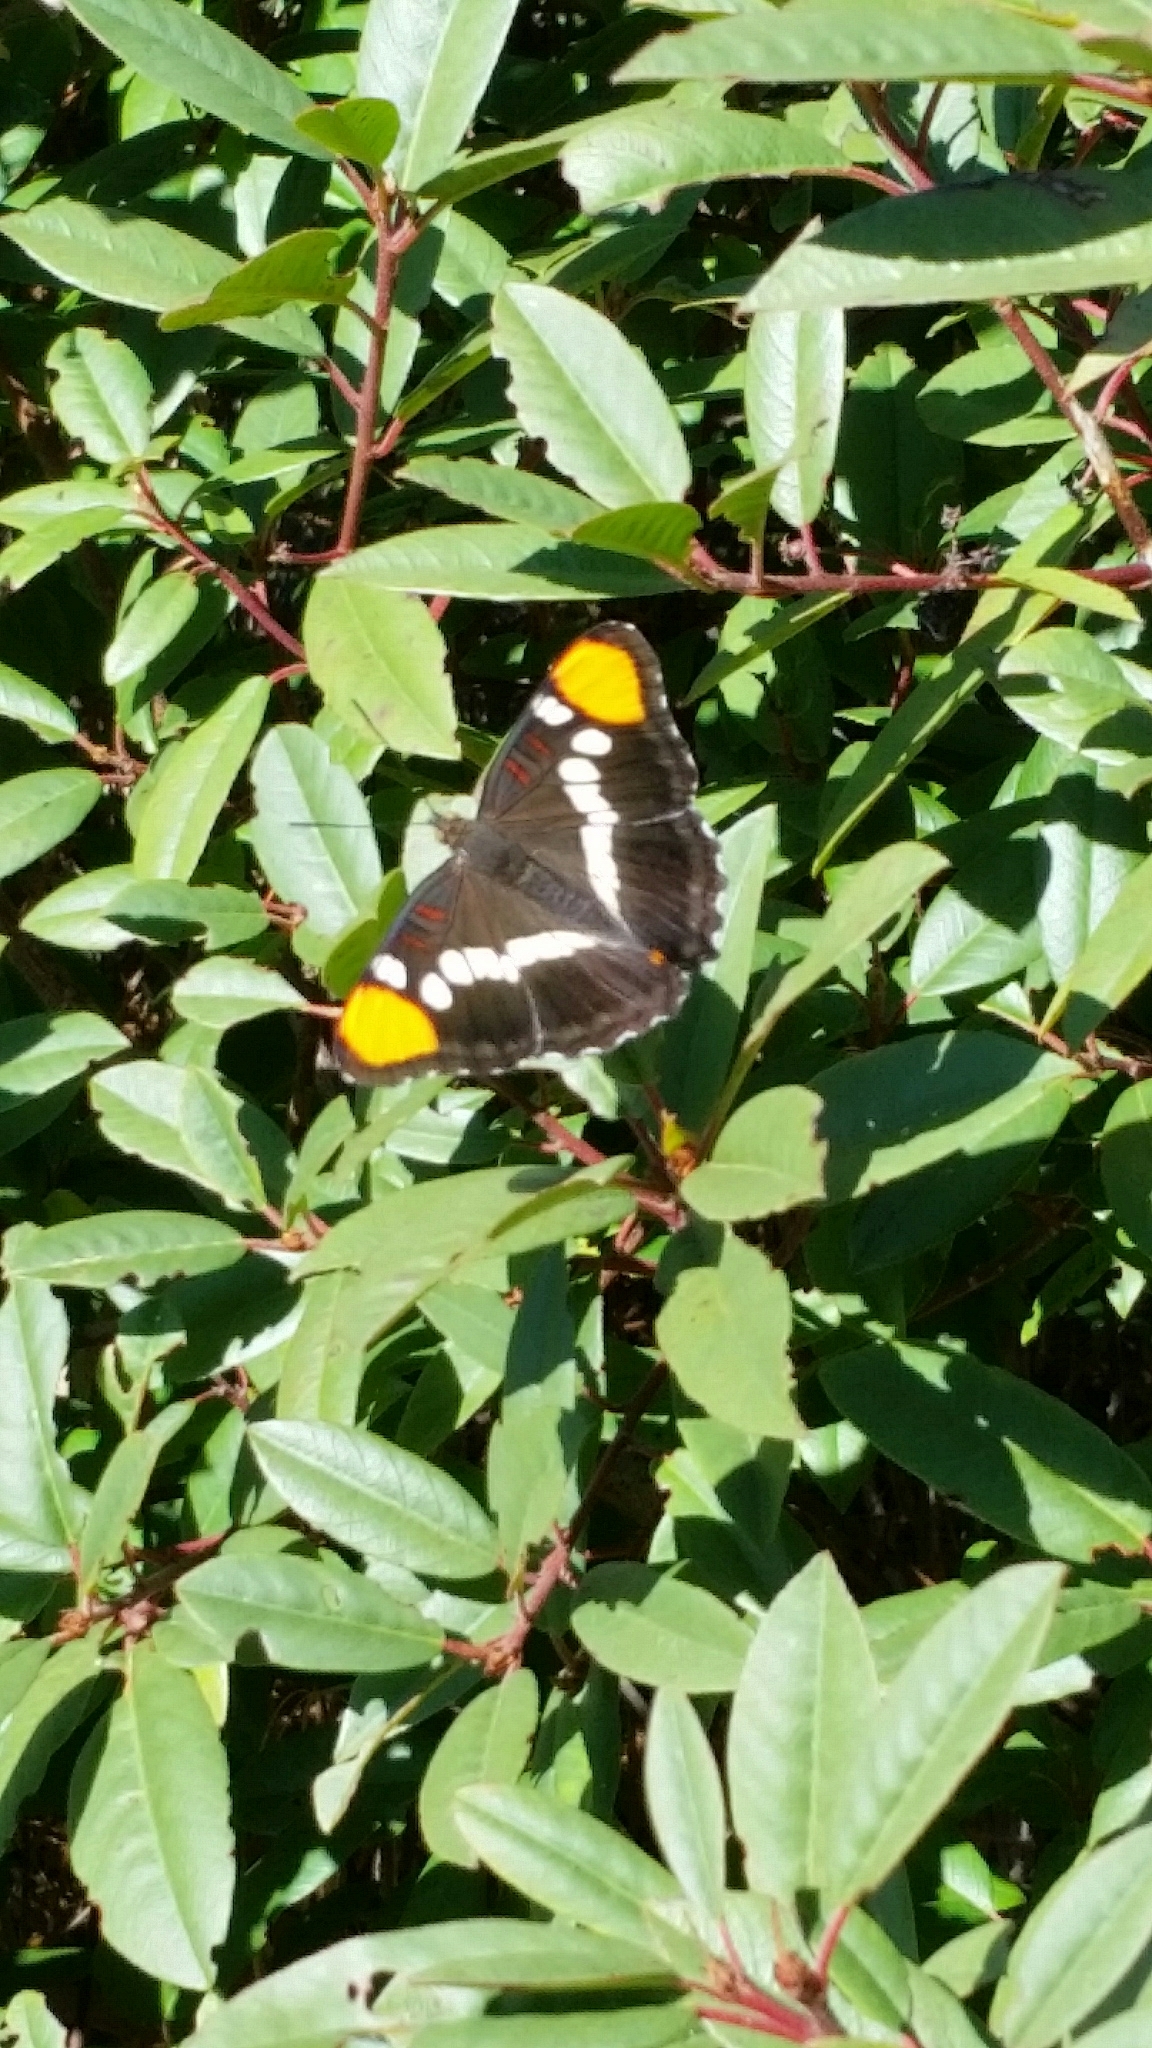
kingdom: Animalia
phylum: Arthropoda
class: Insecta
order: Lepidoptera
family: Nymphalidae
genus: Limenitis
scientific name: Limenitis bredowii
